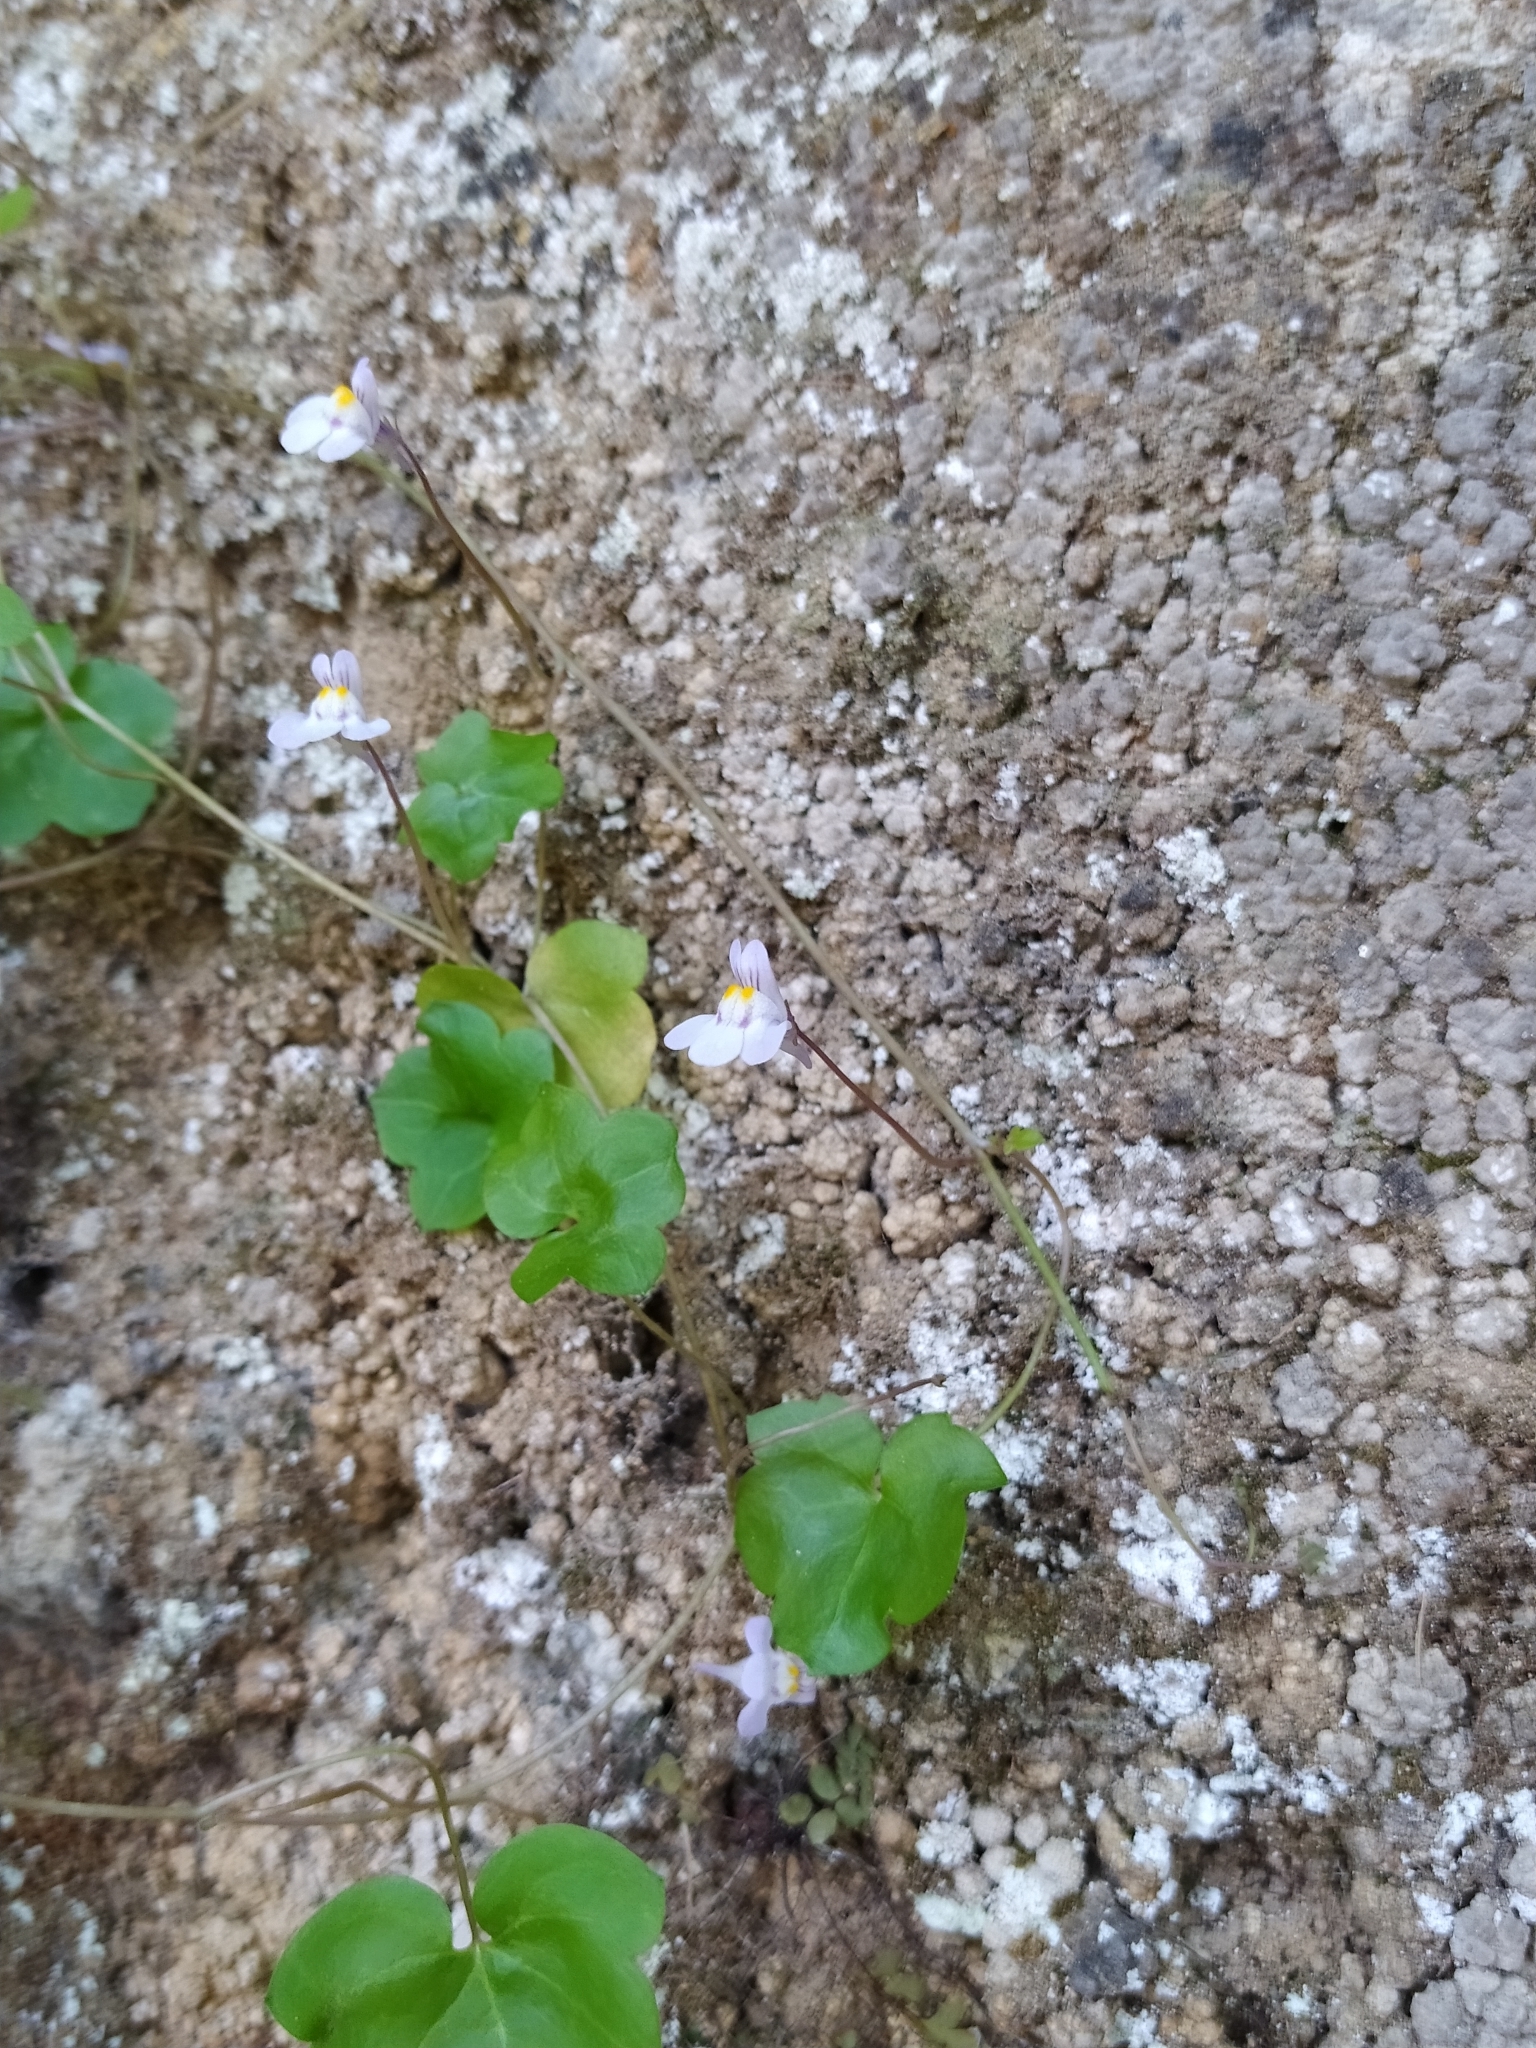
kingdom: Plantae
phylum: Tracheophyta
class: Magnoliopsida
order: Lamiales
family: Plantaginaceae
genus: Cymbalaria
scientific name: Cymbalaria muralis
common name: Ivy-leaved toadflax
